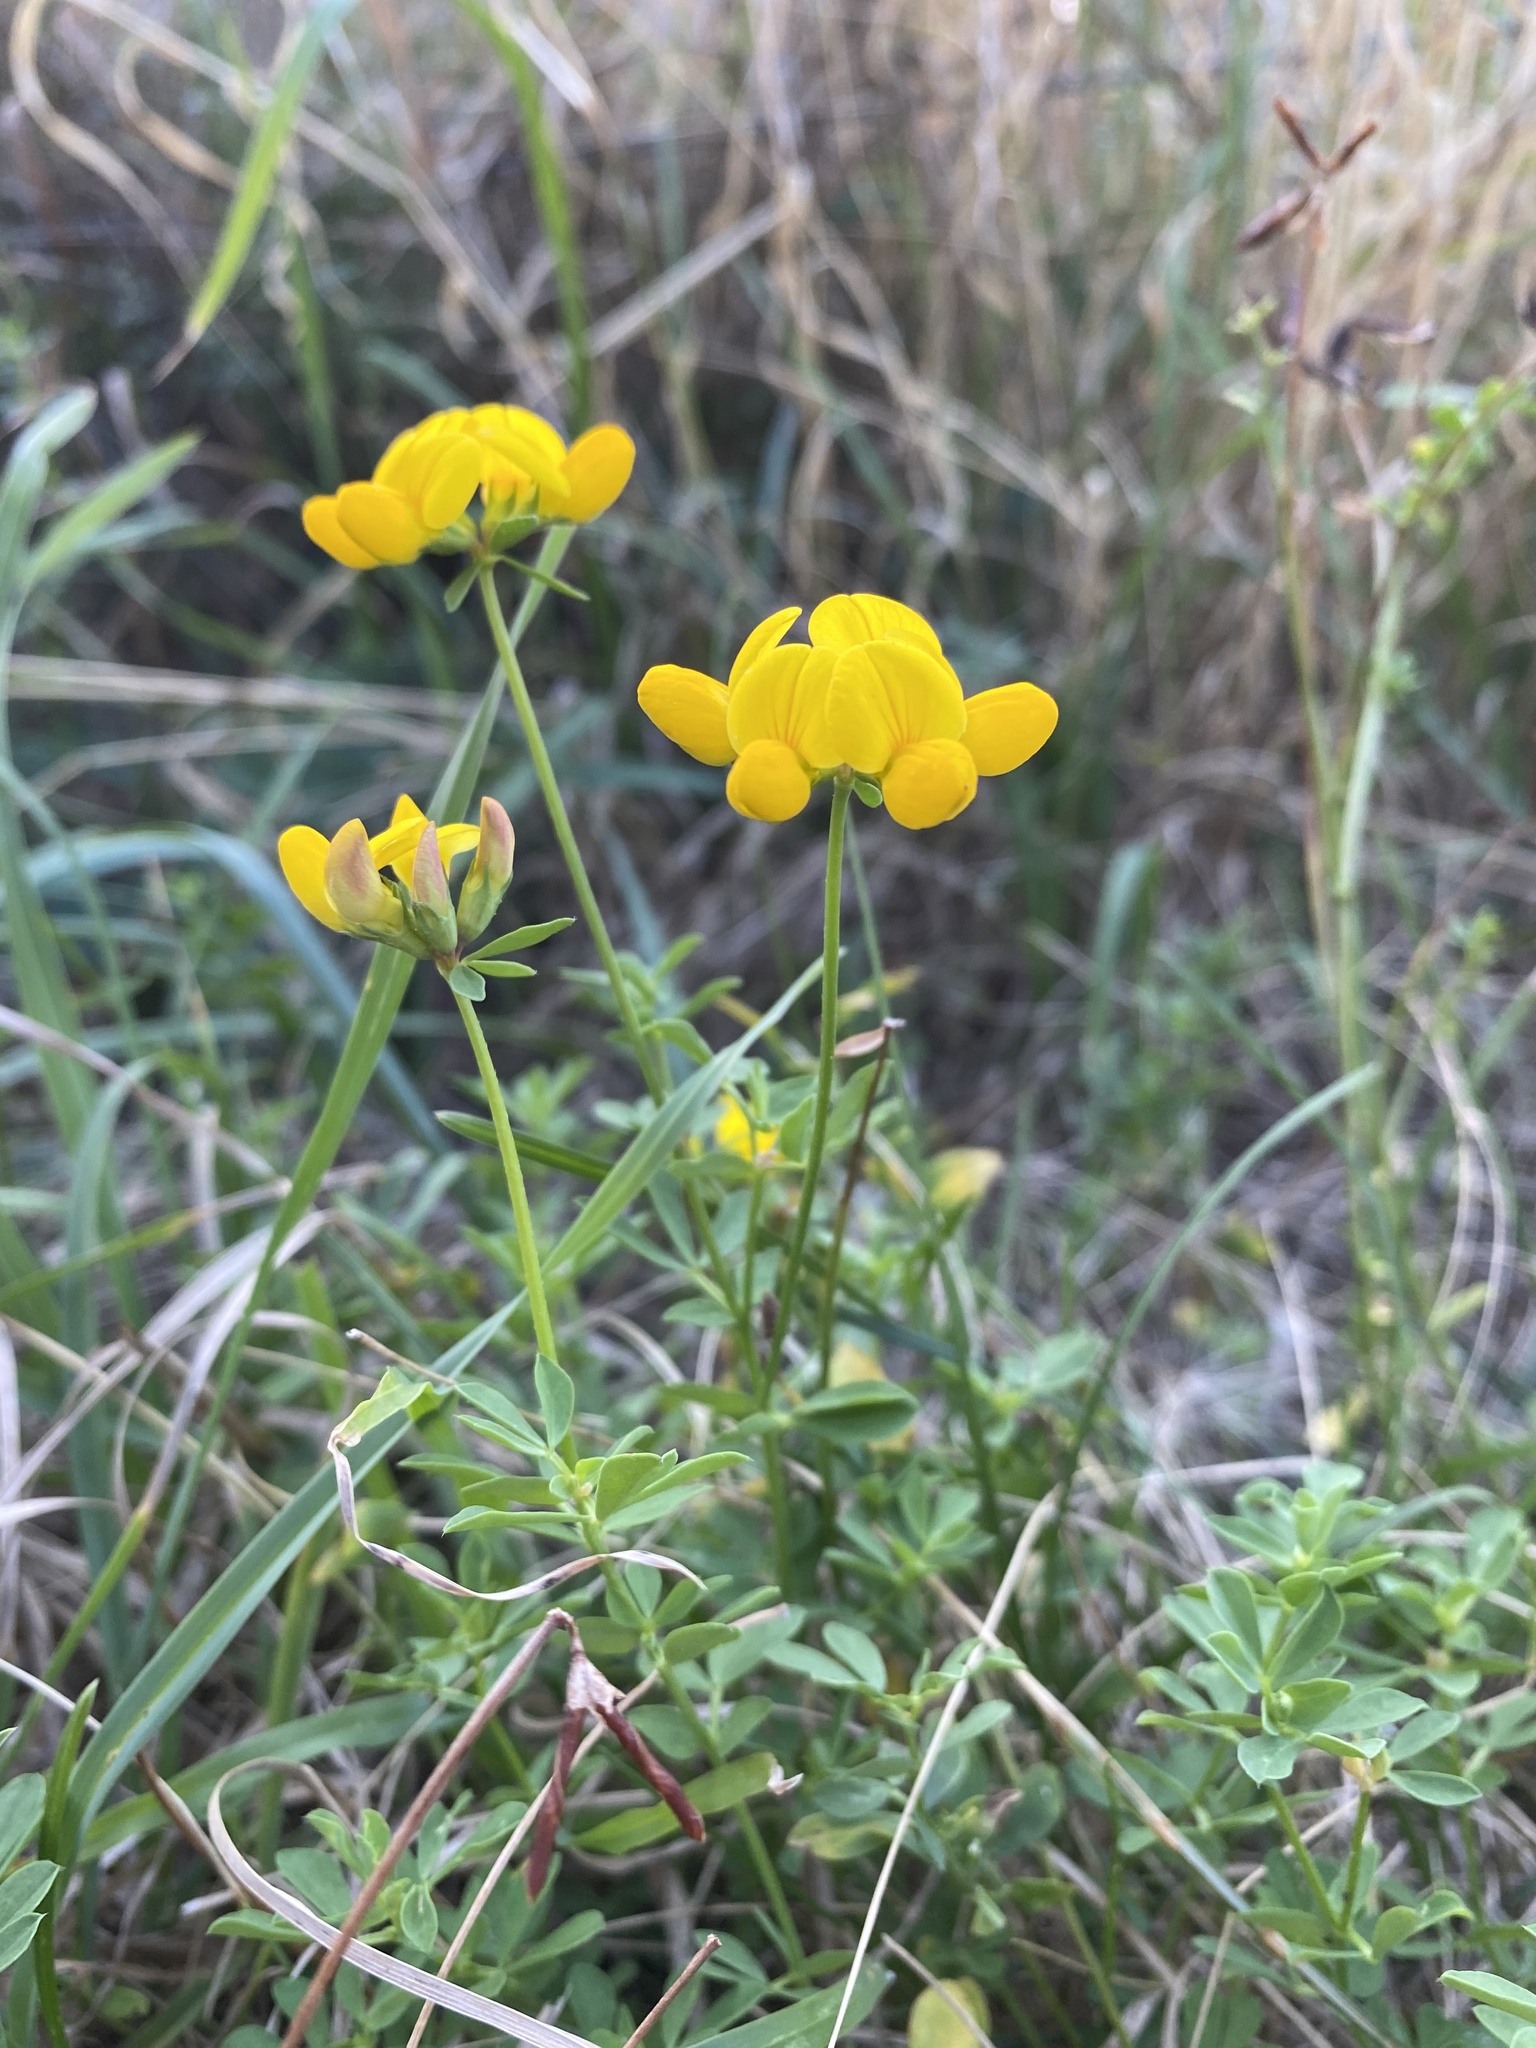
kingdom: Plantae
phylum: Tracheophyta
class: Magnoliopsida
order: Fabales
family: Fabaceae
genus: Lotus
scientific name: Lotus corniculatus
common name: Common bird's-foot-trefoil
